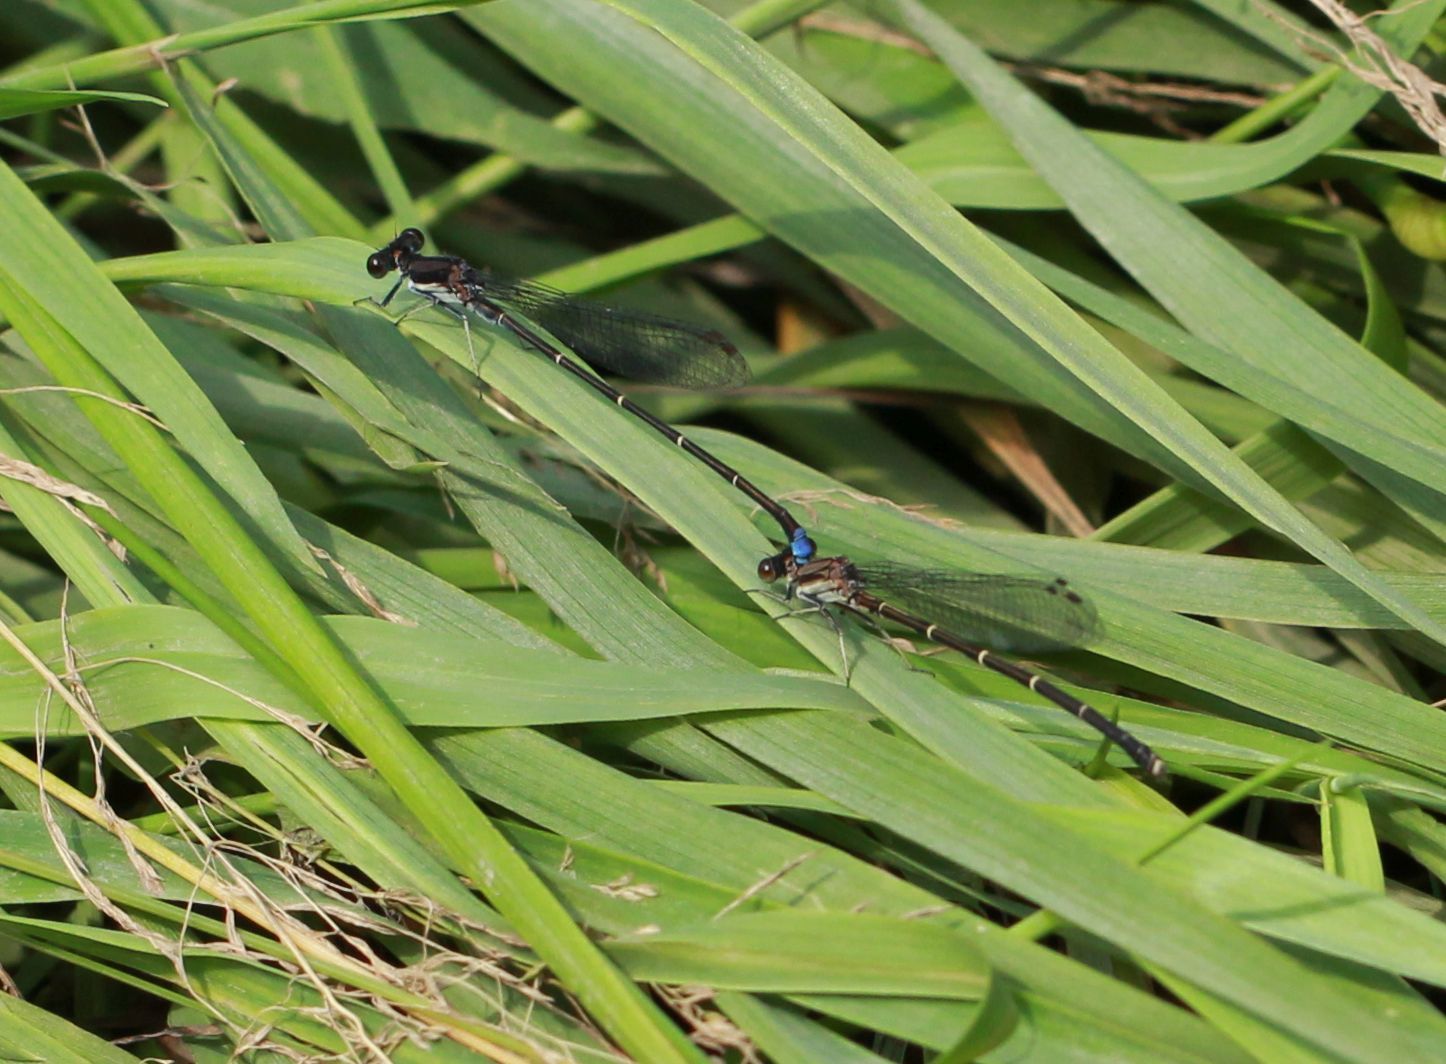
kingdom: Animalia
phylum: Arthropoda
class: Insecta
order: Odonata
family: Coenagrionidae
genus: Argia
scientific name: Argia tibialis
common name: Blue-tipped dancer
